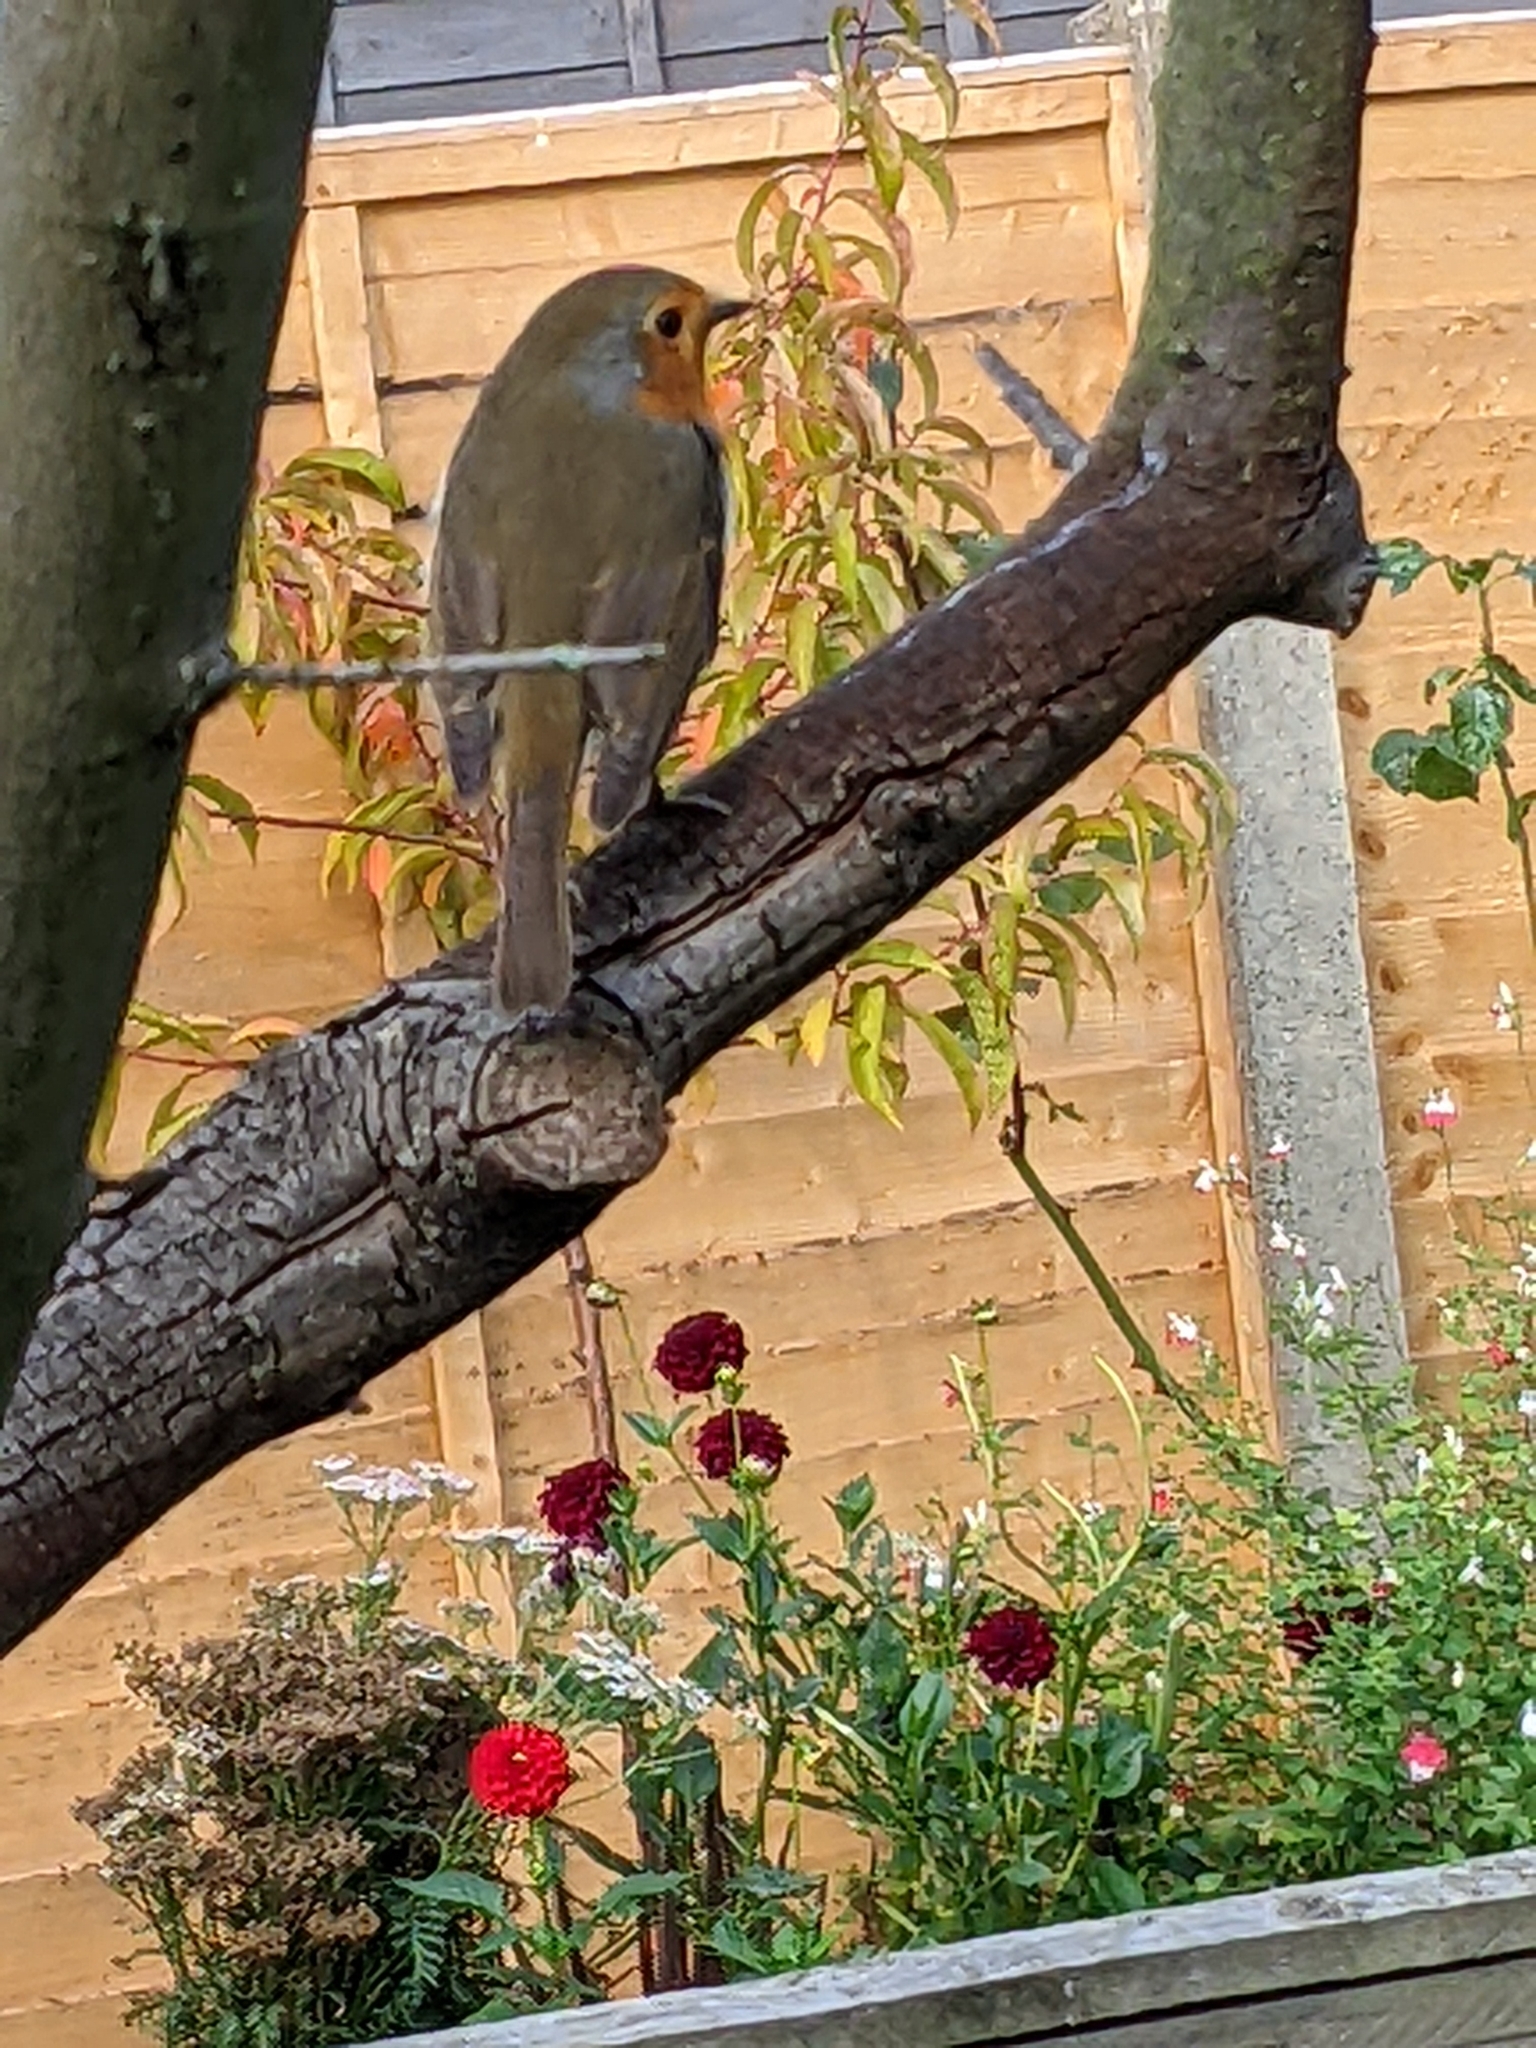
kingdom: Animalia
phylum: Chordata
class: Aves
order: Passeriformes
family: Muscicapidae
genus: Erithacus
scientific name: Erithacus rubecula
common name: European robin
